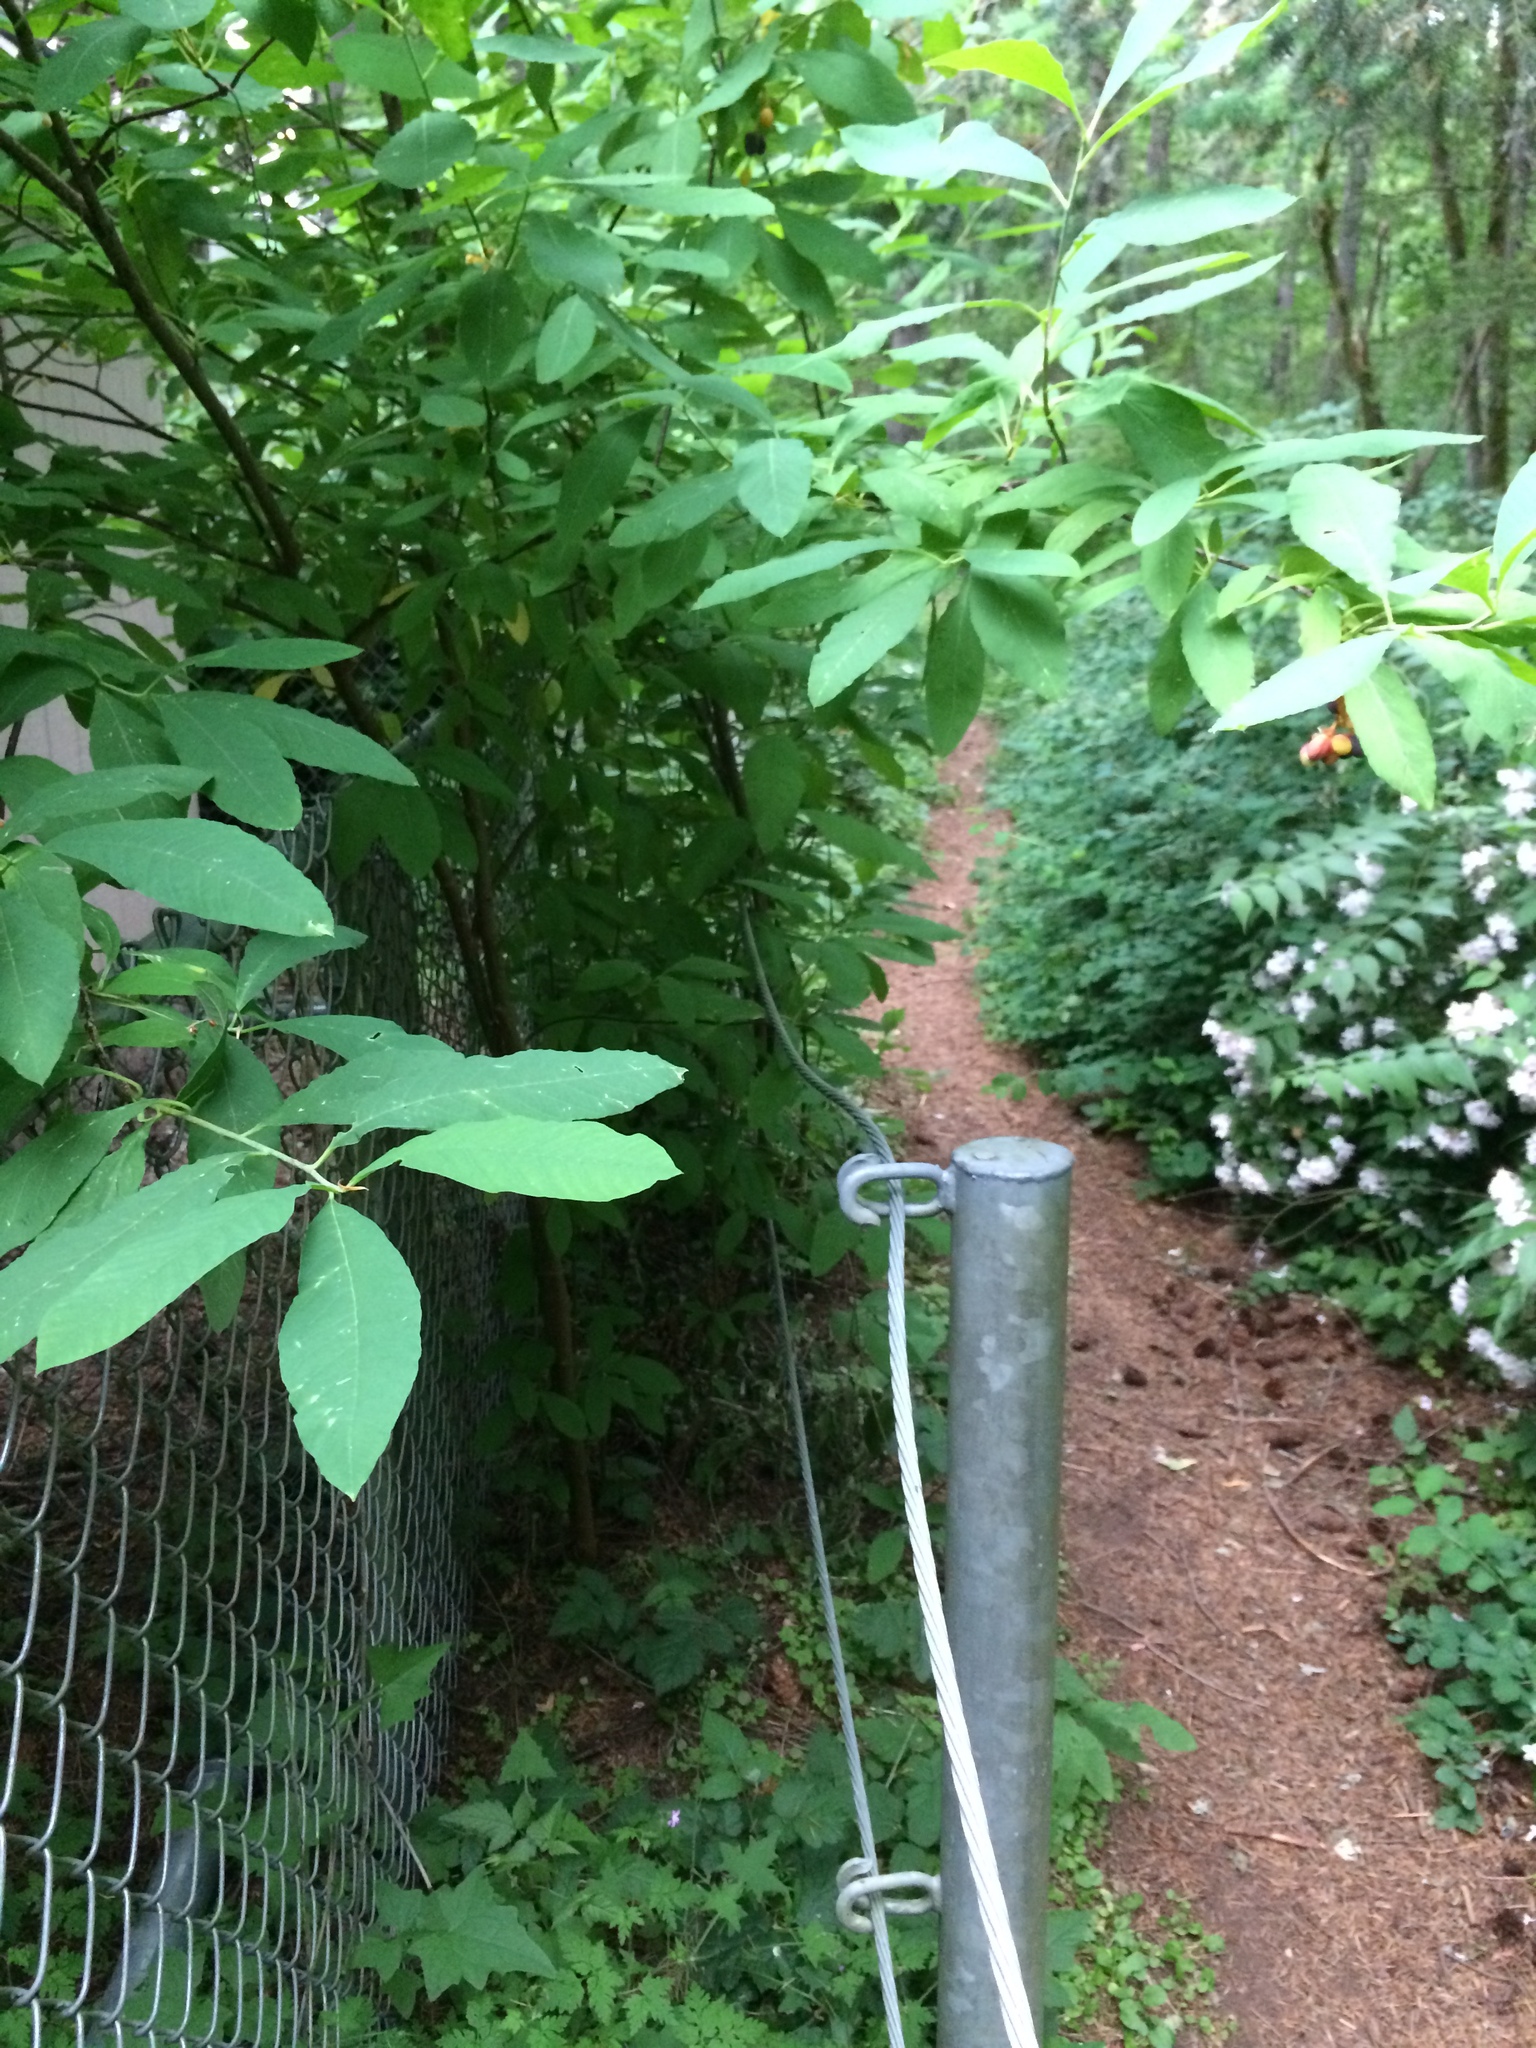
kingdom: Plantae
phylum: Tracheophyta
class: Magnoliopsida
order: Rosales
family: Rosaceae
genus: Oemleria
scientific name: Oemleria cerasiformis
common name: Osoberry
